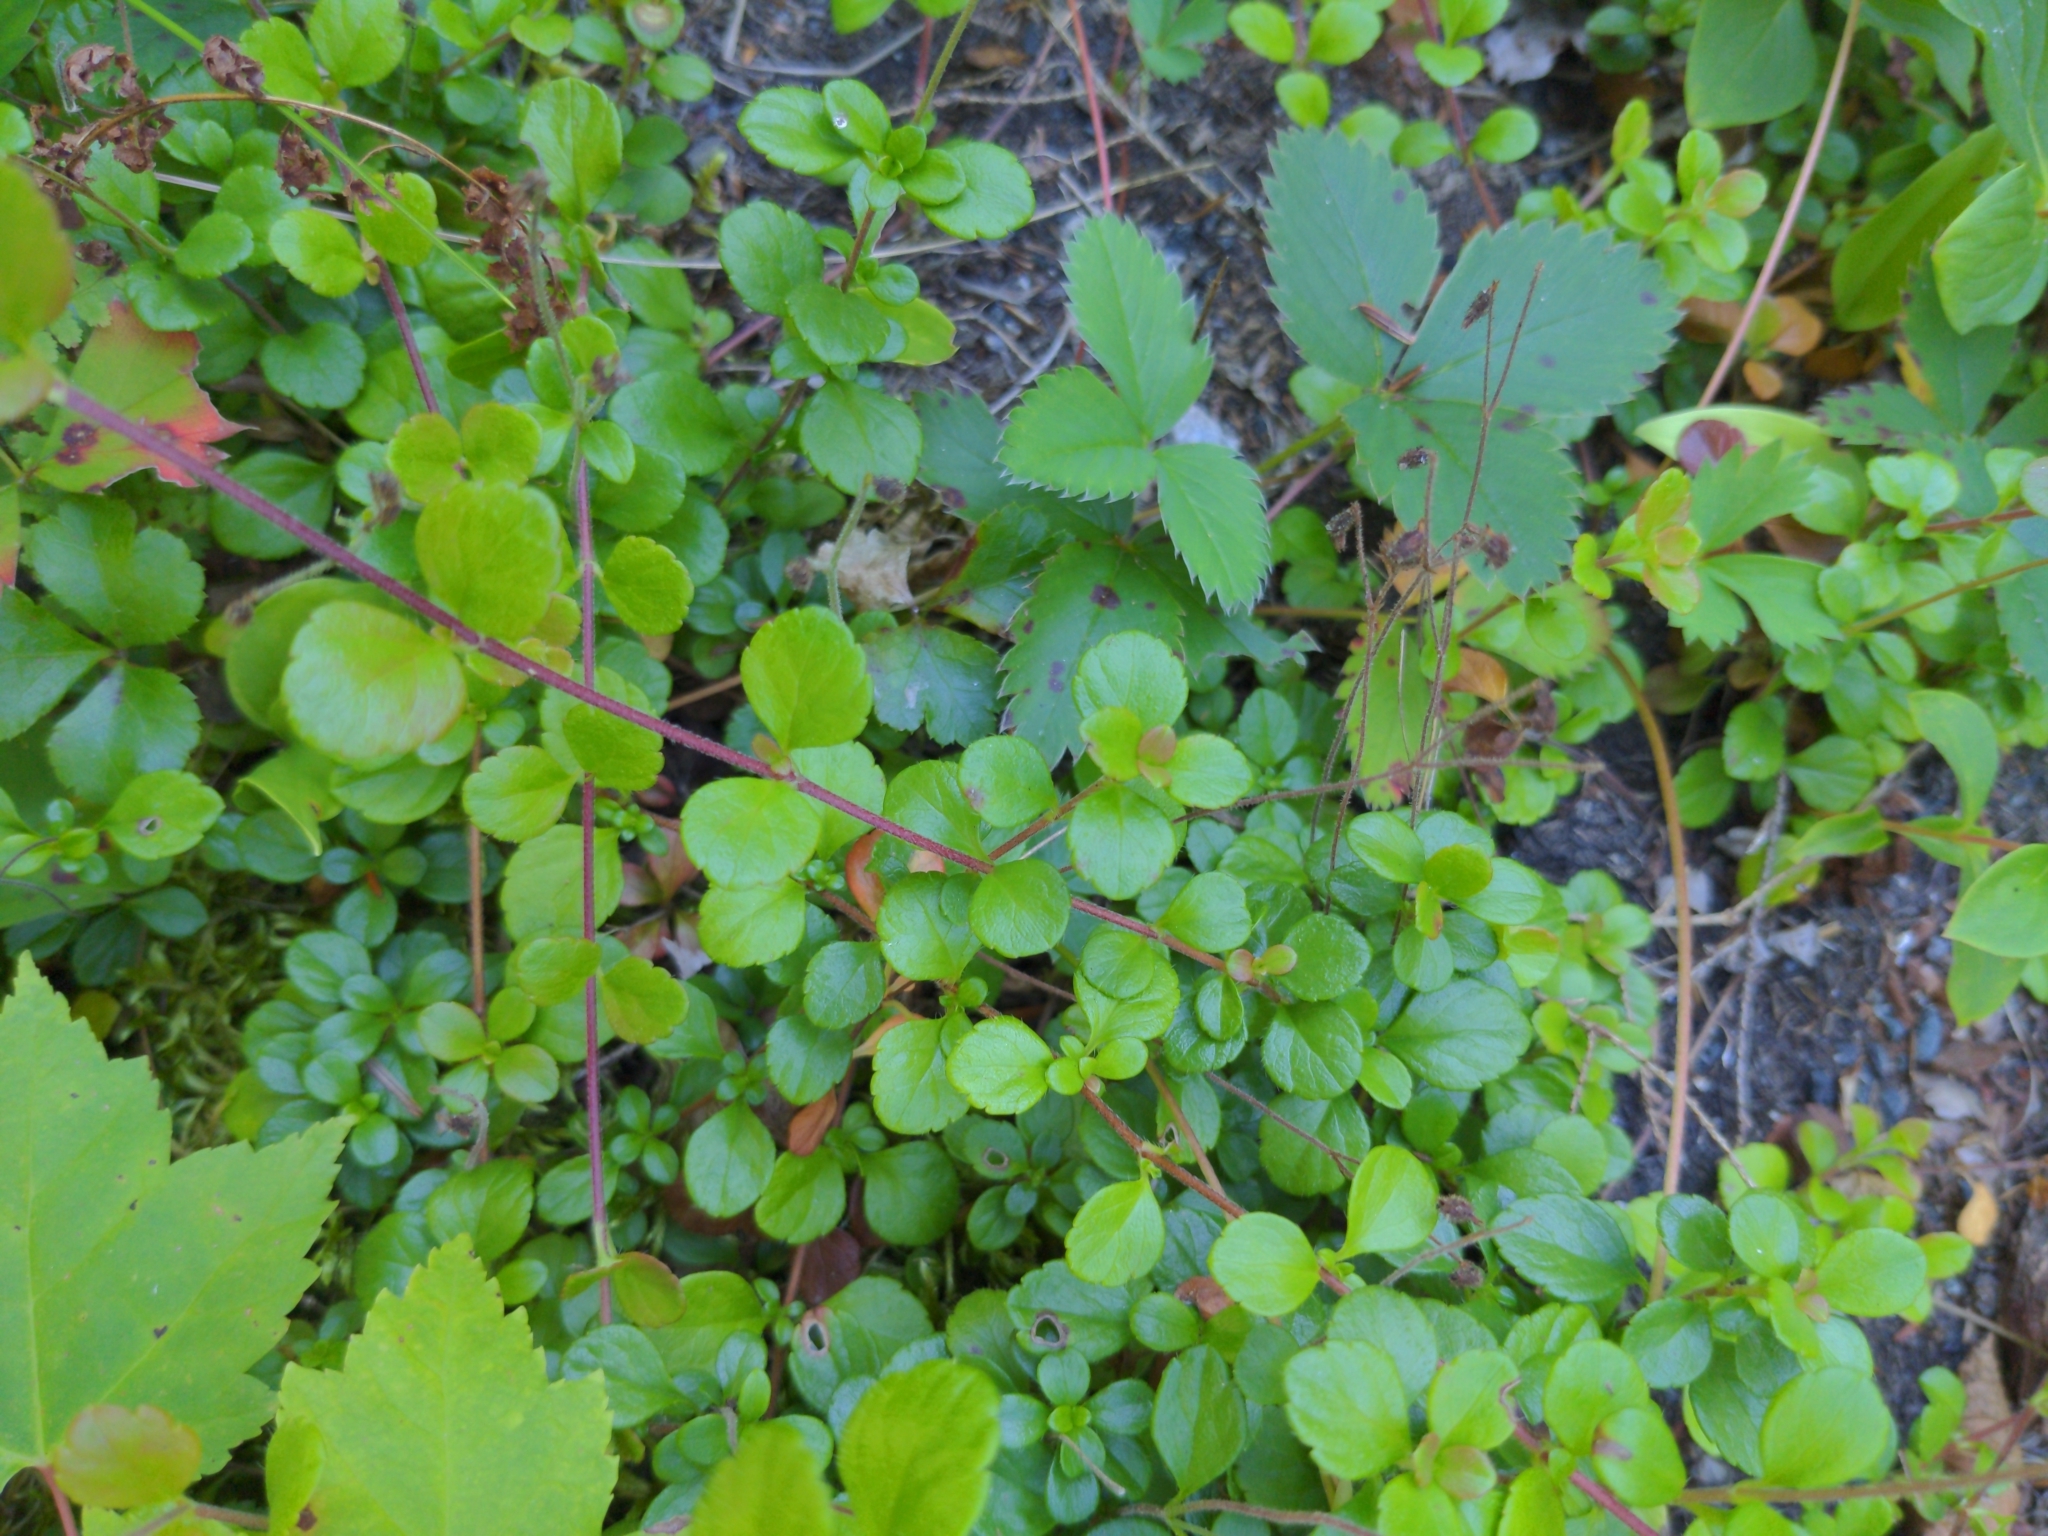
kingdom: Plantae
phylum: Tracheophyta
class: Magnoliopsida
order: Dipsacales
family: Caprifoliaceae
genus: Linnaea
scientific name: Linnaea borealis
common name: Twinflower
